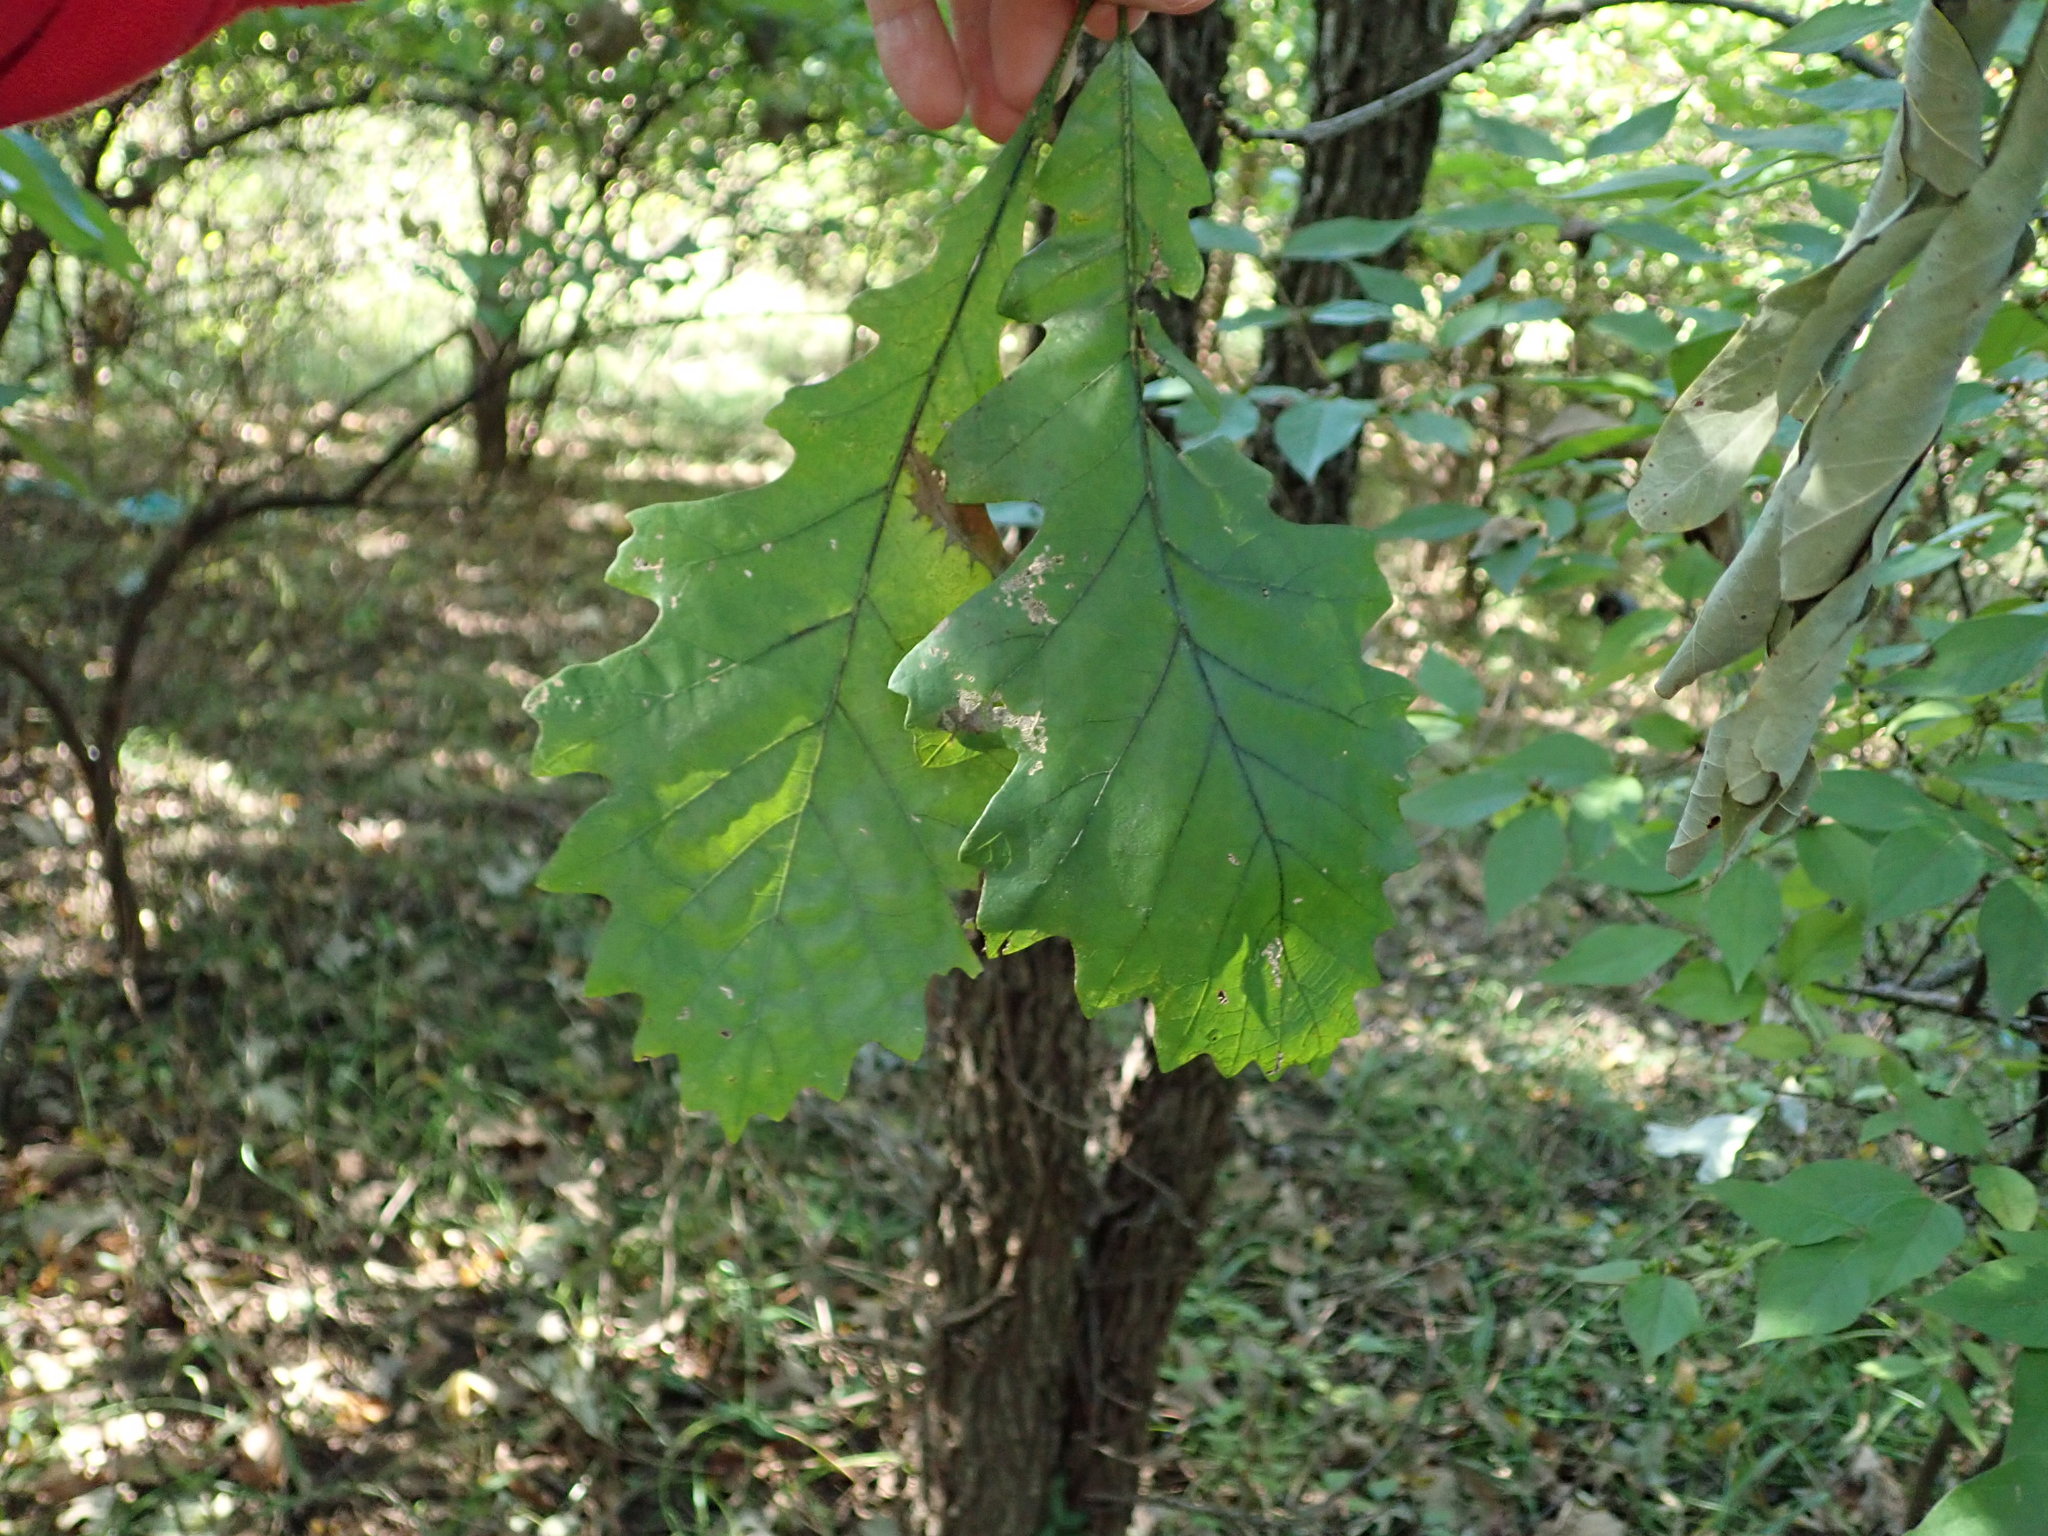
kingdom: Plantae
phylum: Tracheophyta
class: Magnoliopsida
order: Fagales
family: Fagaceae
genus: Quercus
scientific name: Quercus macrocarpa
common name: Bur oak
